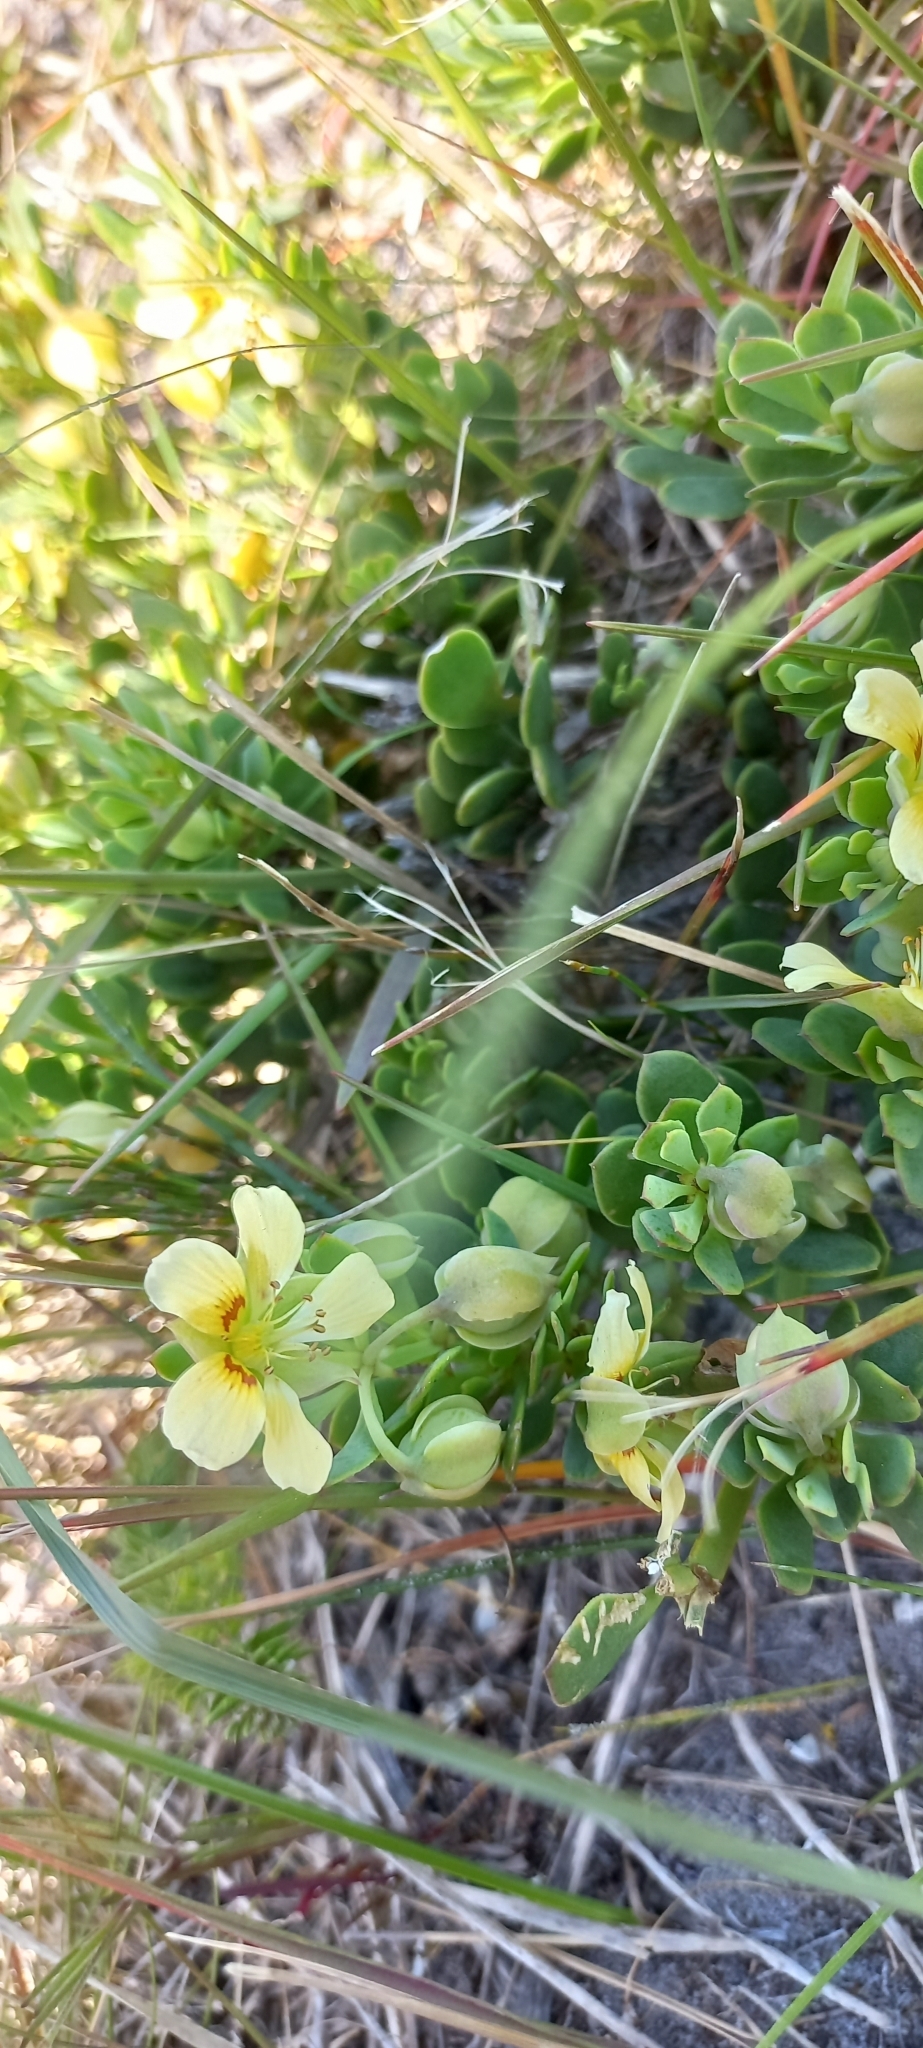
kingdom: Plantae
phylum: Tracheophyta
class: Magnoliopsida
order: Zygophyllales
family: Zygophyllaceae
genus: Roepera
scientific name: Roepera flexuosa
